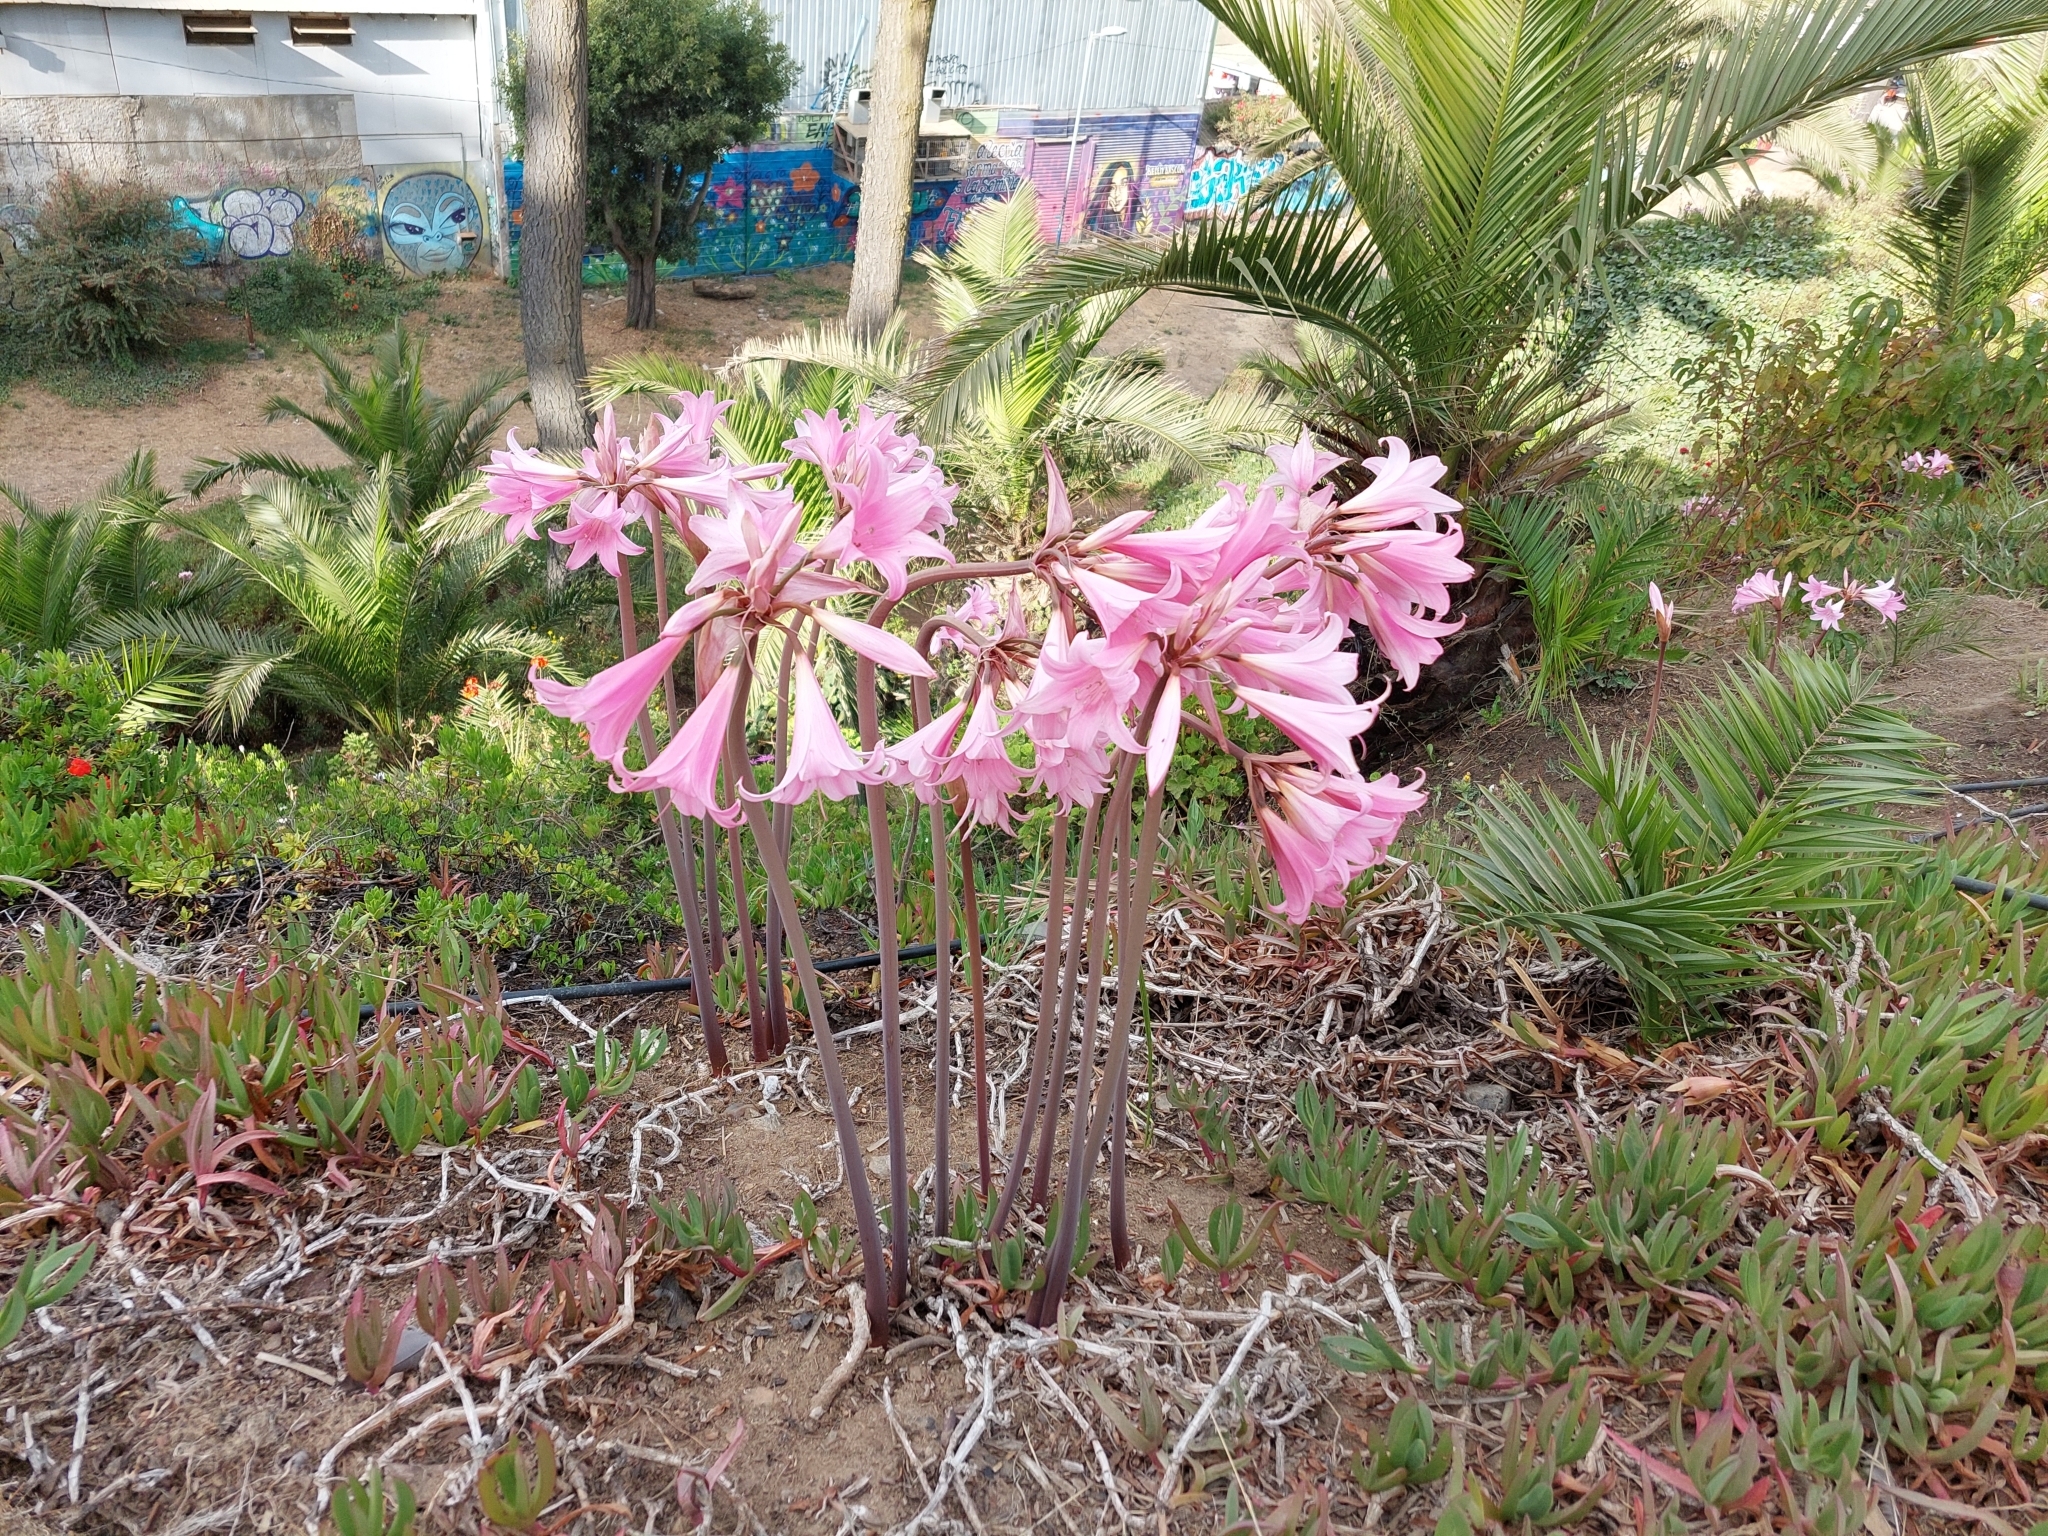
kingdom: Plantae
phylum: Tracheophyta
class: Liliopsida
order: Asparagales
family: Amaryllidaceae
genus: Amaryllis
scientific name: Amaryllis belladonna
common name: Jersey lily
